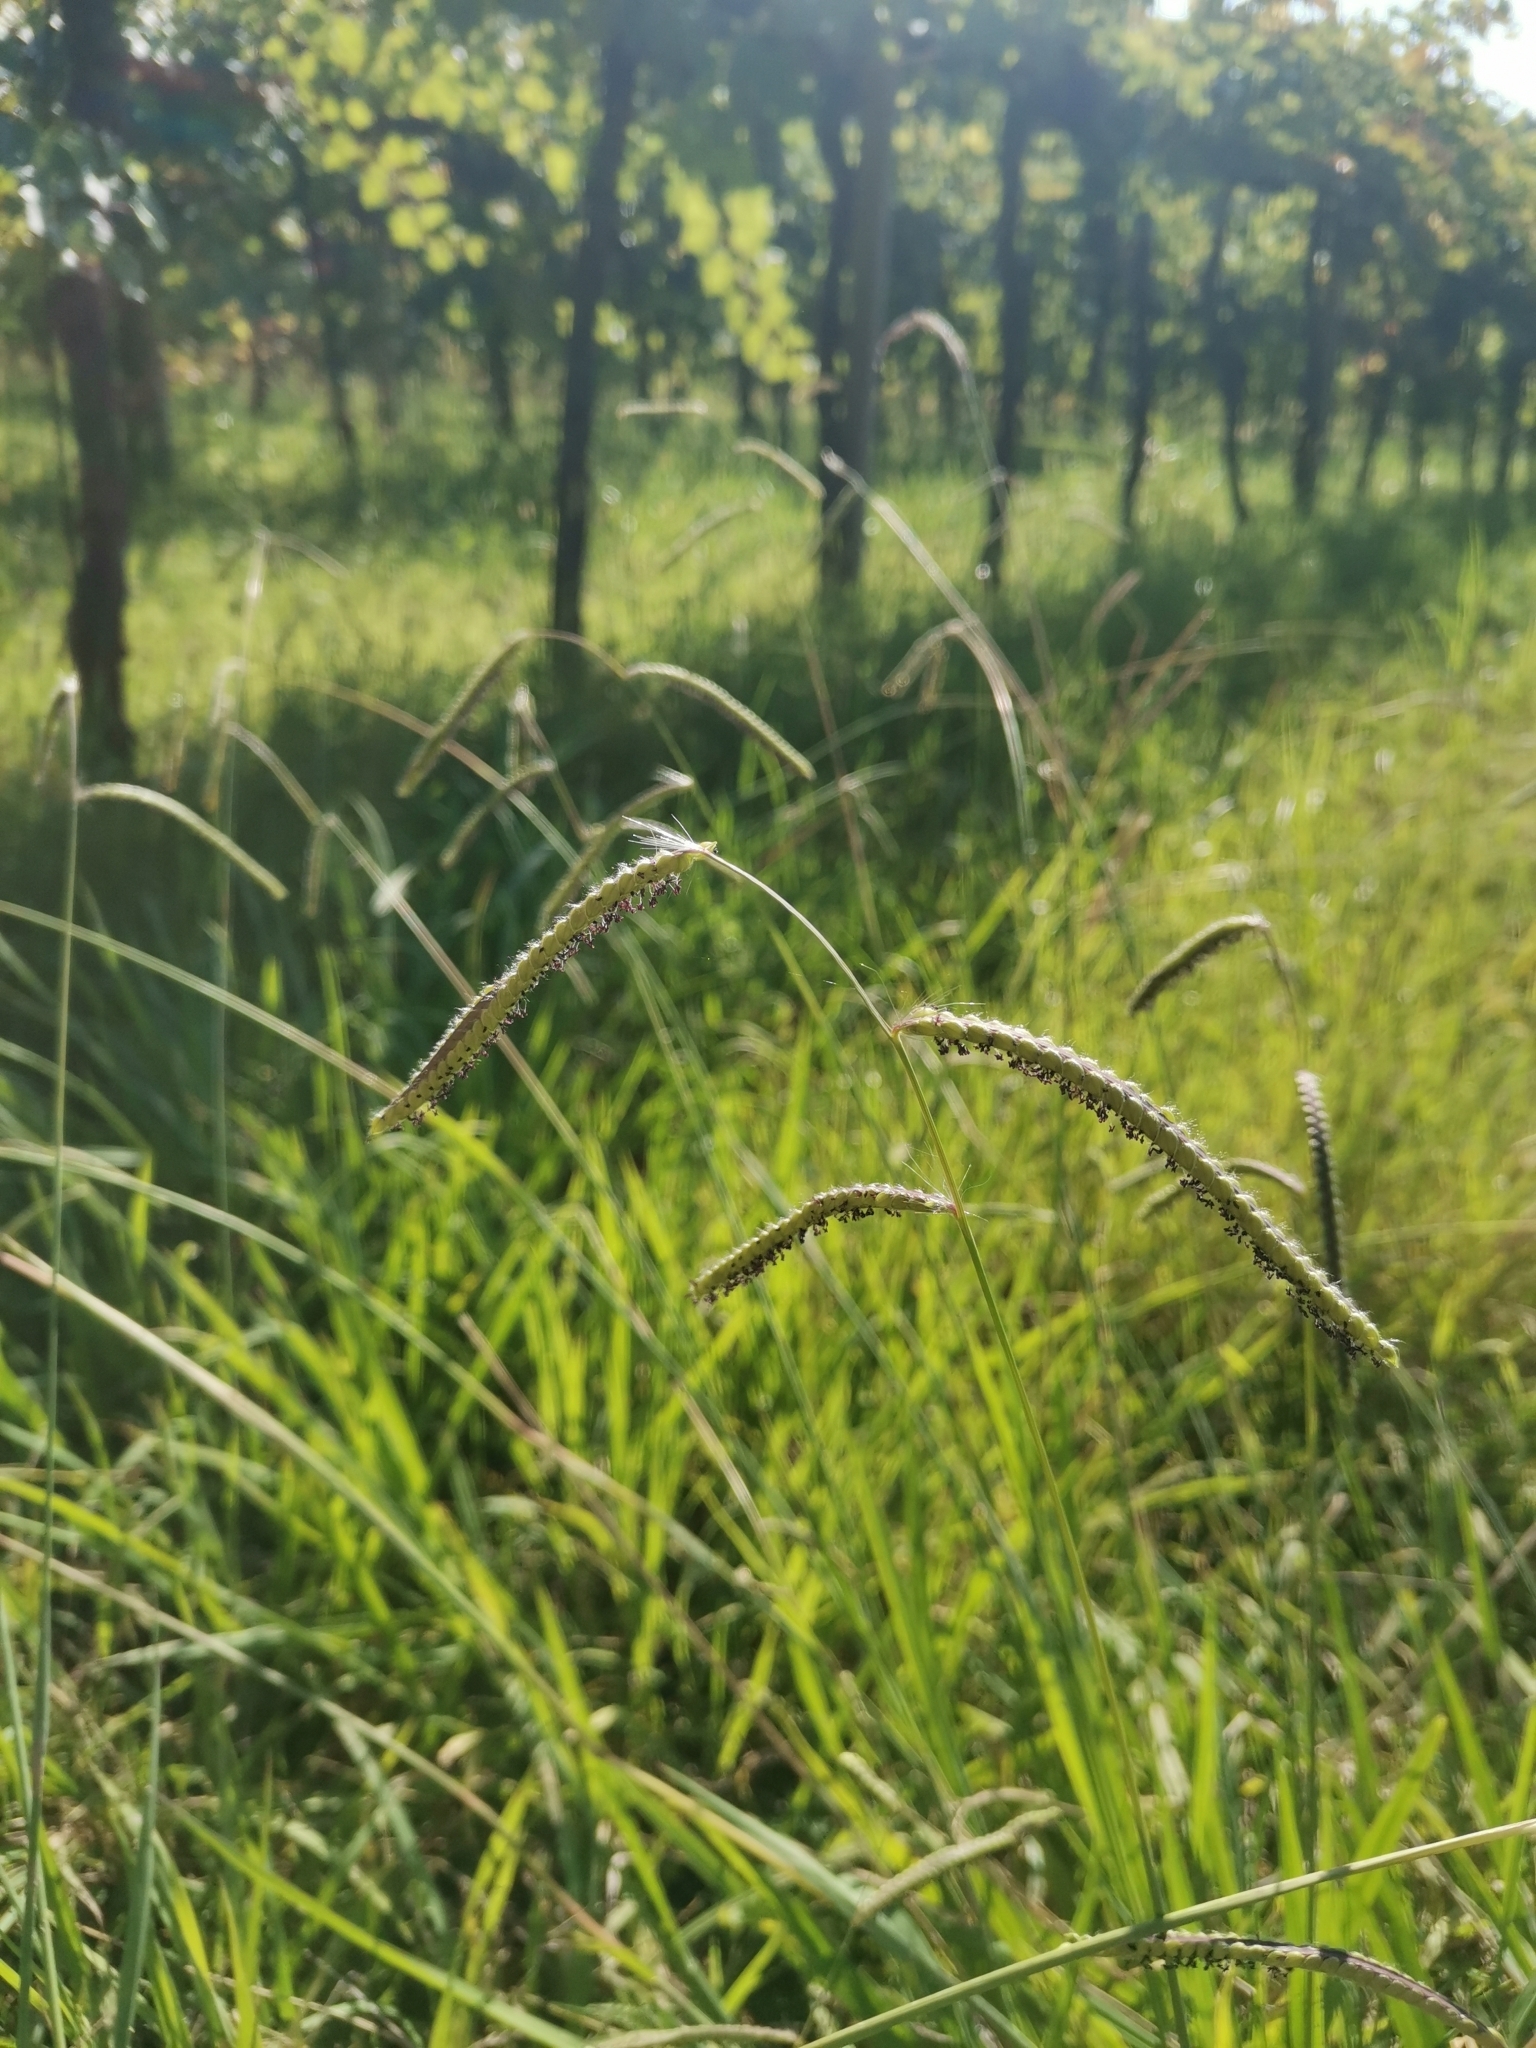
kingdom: Plantae
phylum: Tracheophyta
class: Liliopsida
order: Poales
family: Poaceae
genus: Paspalum
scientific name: Paspalum dilatatum
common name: Dallisgrass
